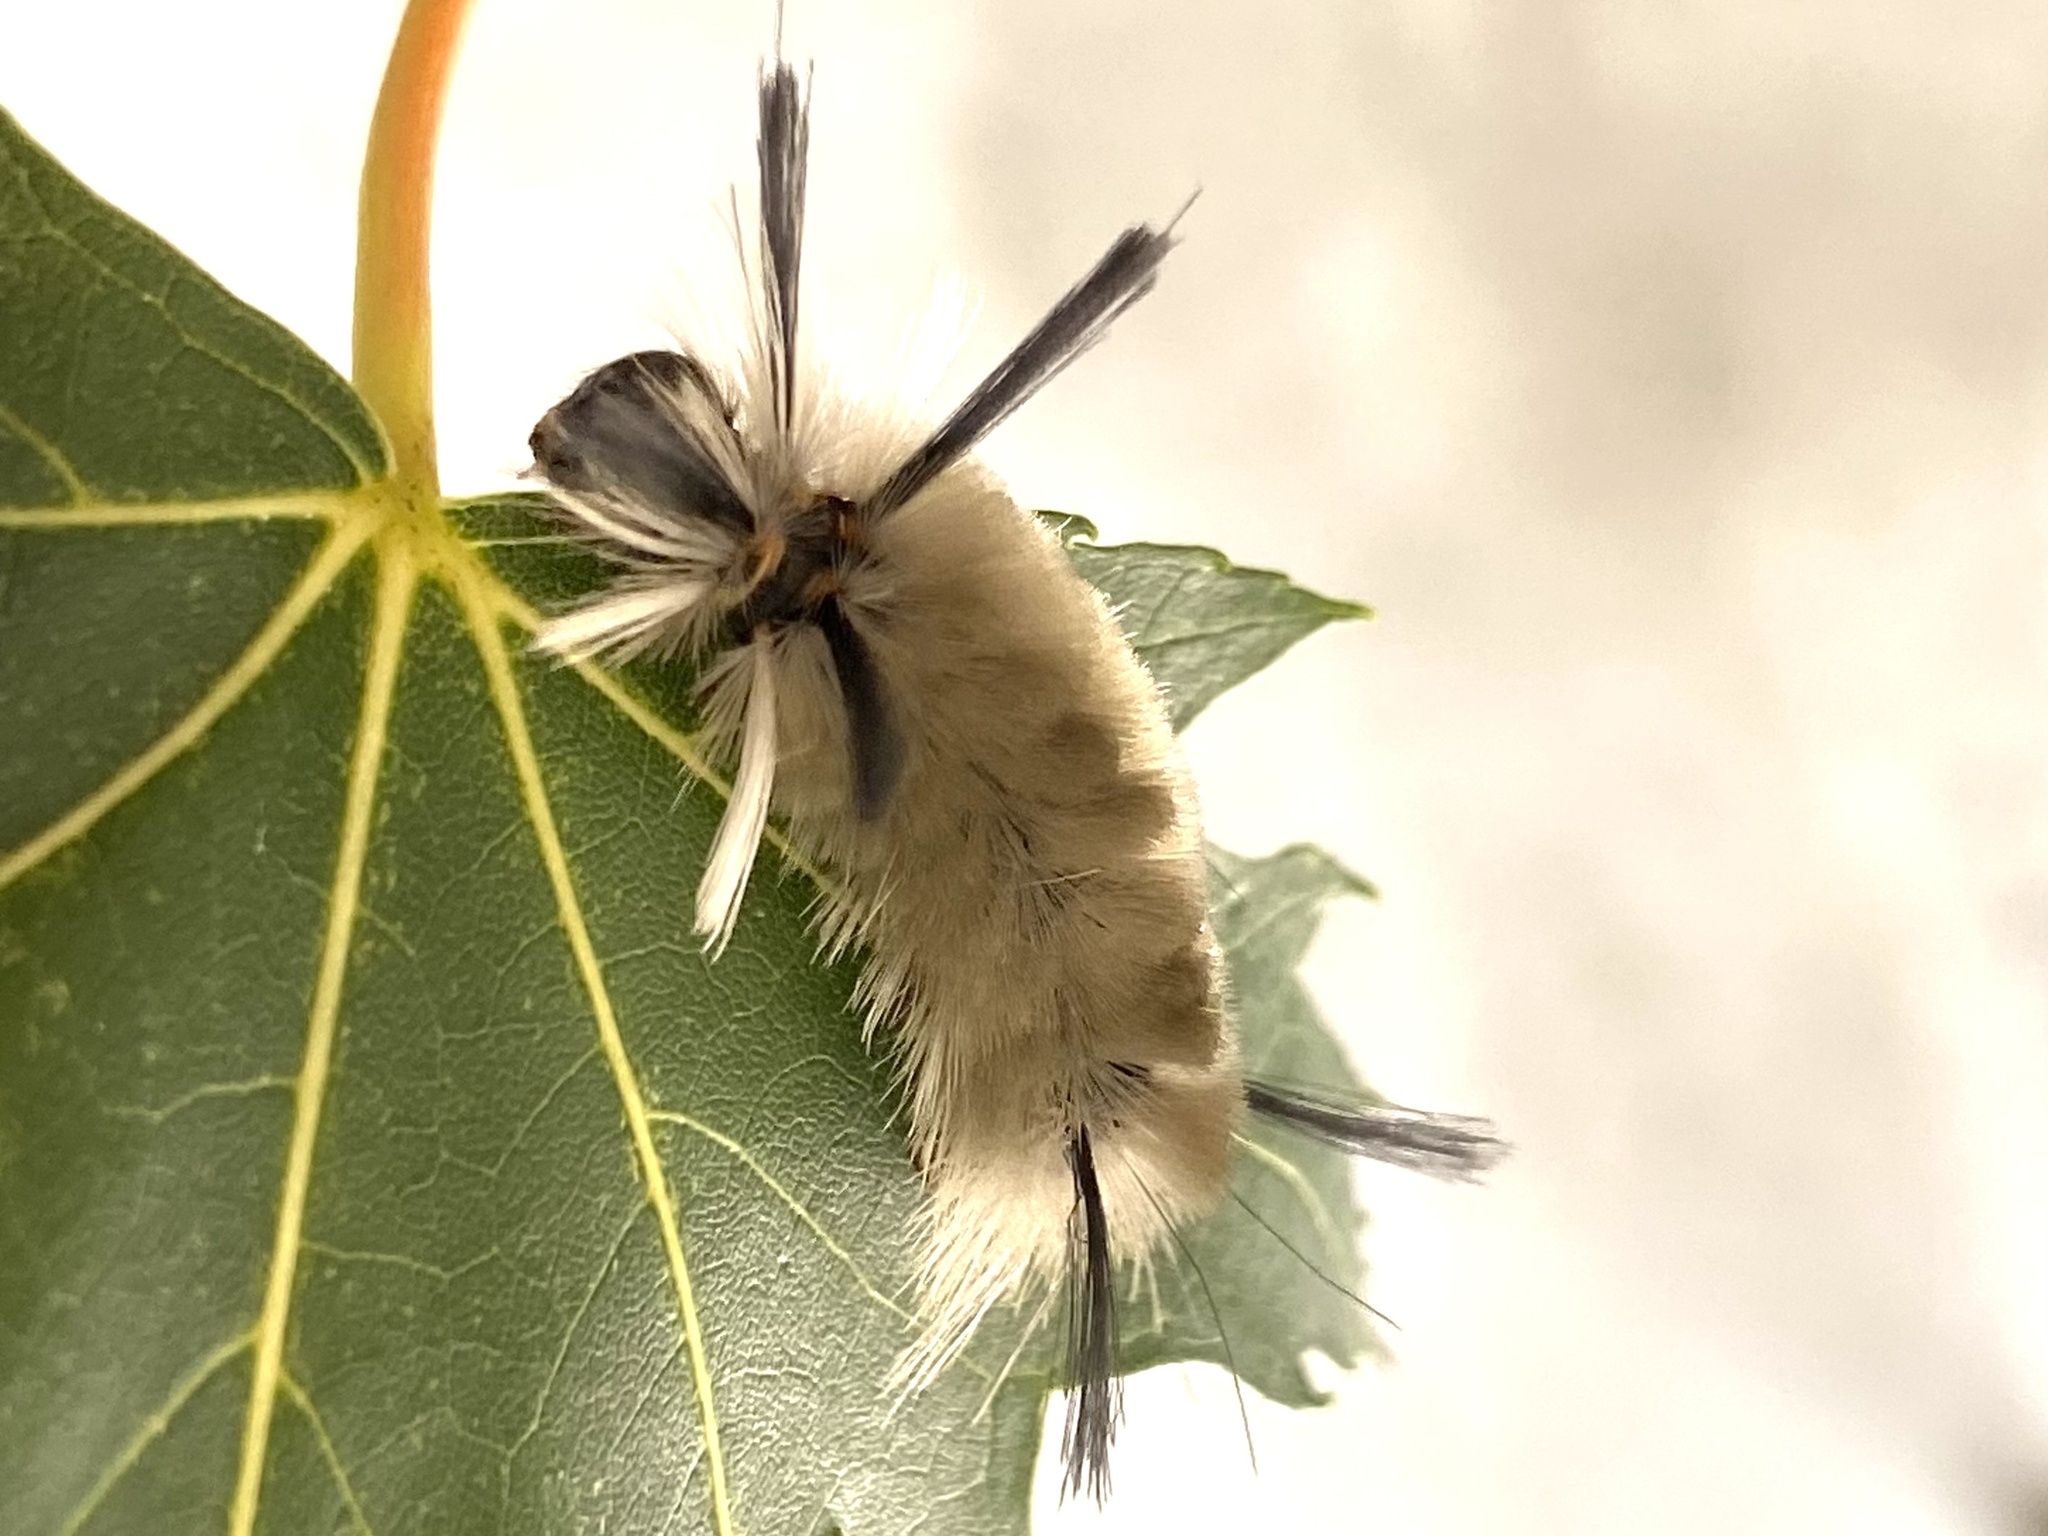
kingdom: Animalia
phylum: Arthropoda
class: Insecta
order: Lepidoptera
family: Erebidae
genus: Halysidota
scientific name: Halysidota tessellaris
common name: Banded tussock moth
